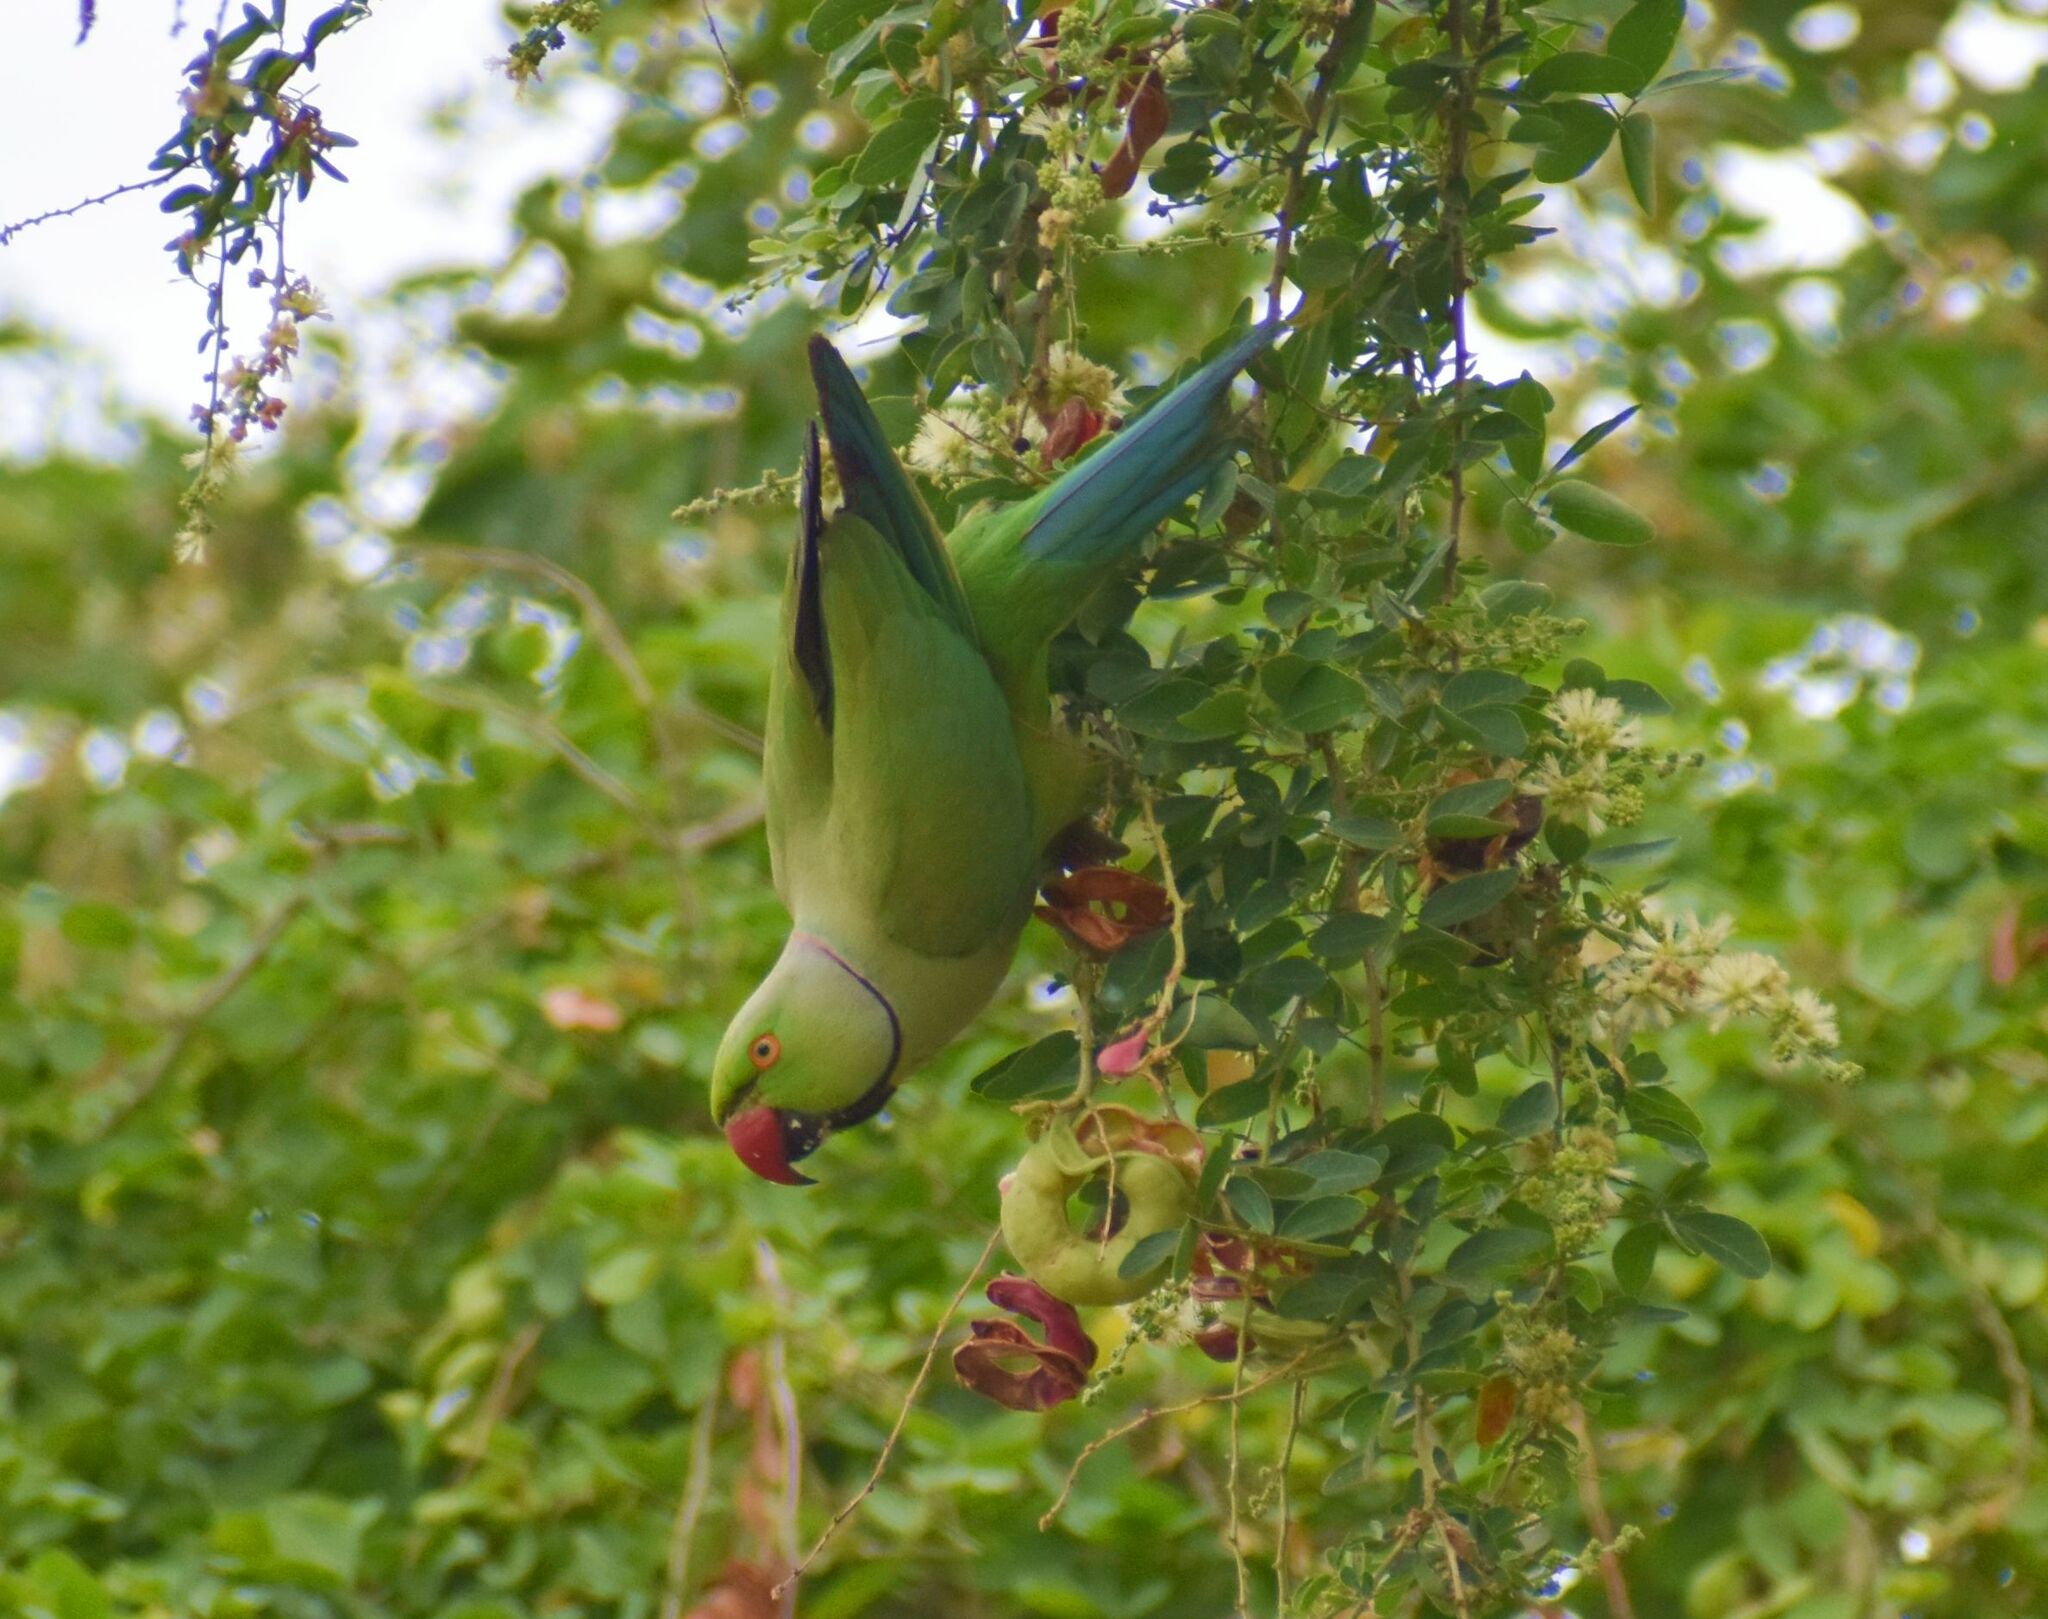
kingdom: Animalia
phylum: Chordata
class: Aves
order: Psittaciformes
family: Psittacidae
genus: Psittacula
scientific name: Psittacula krameri
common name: Rose-ringed parakeet
